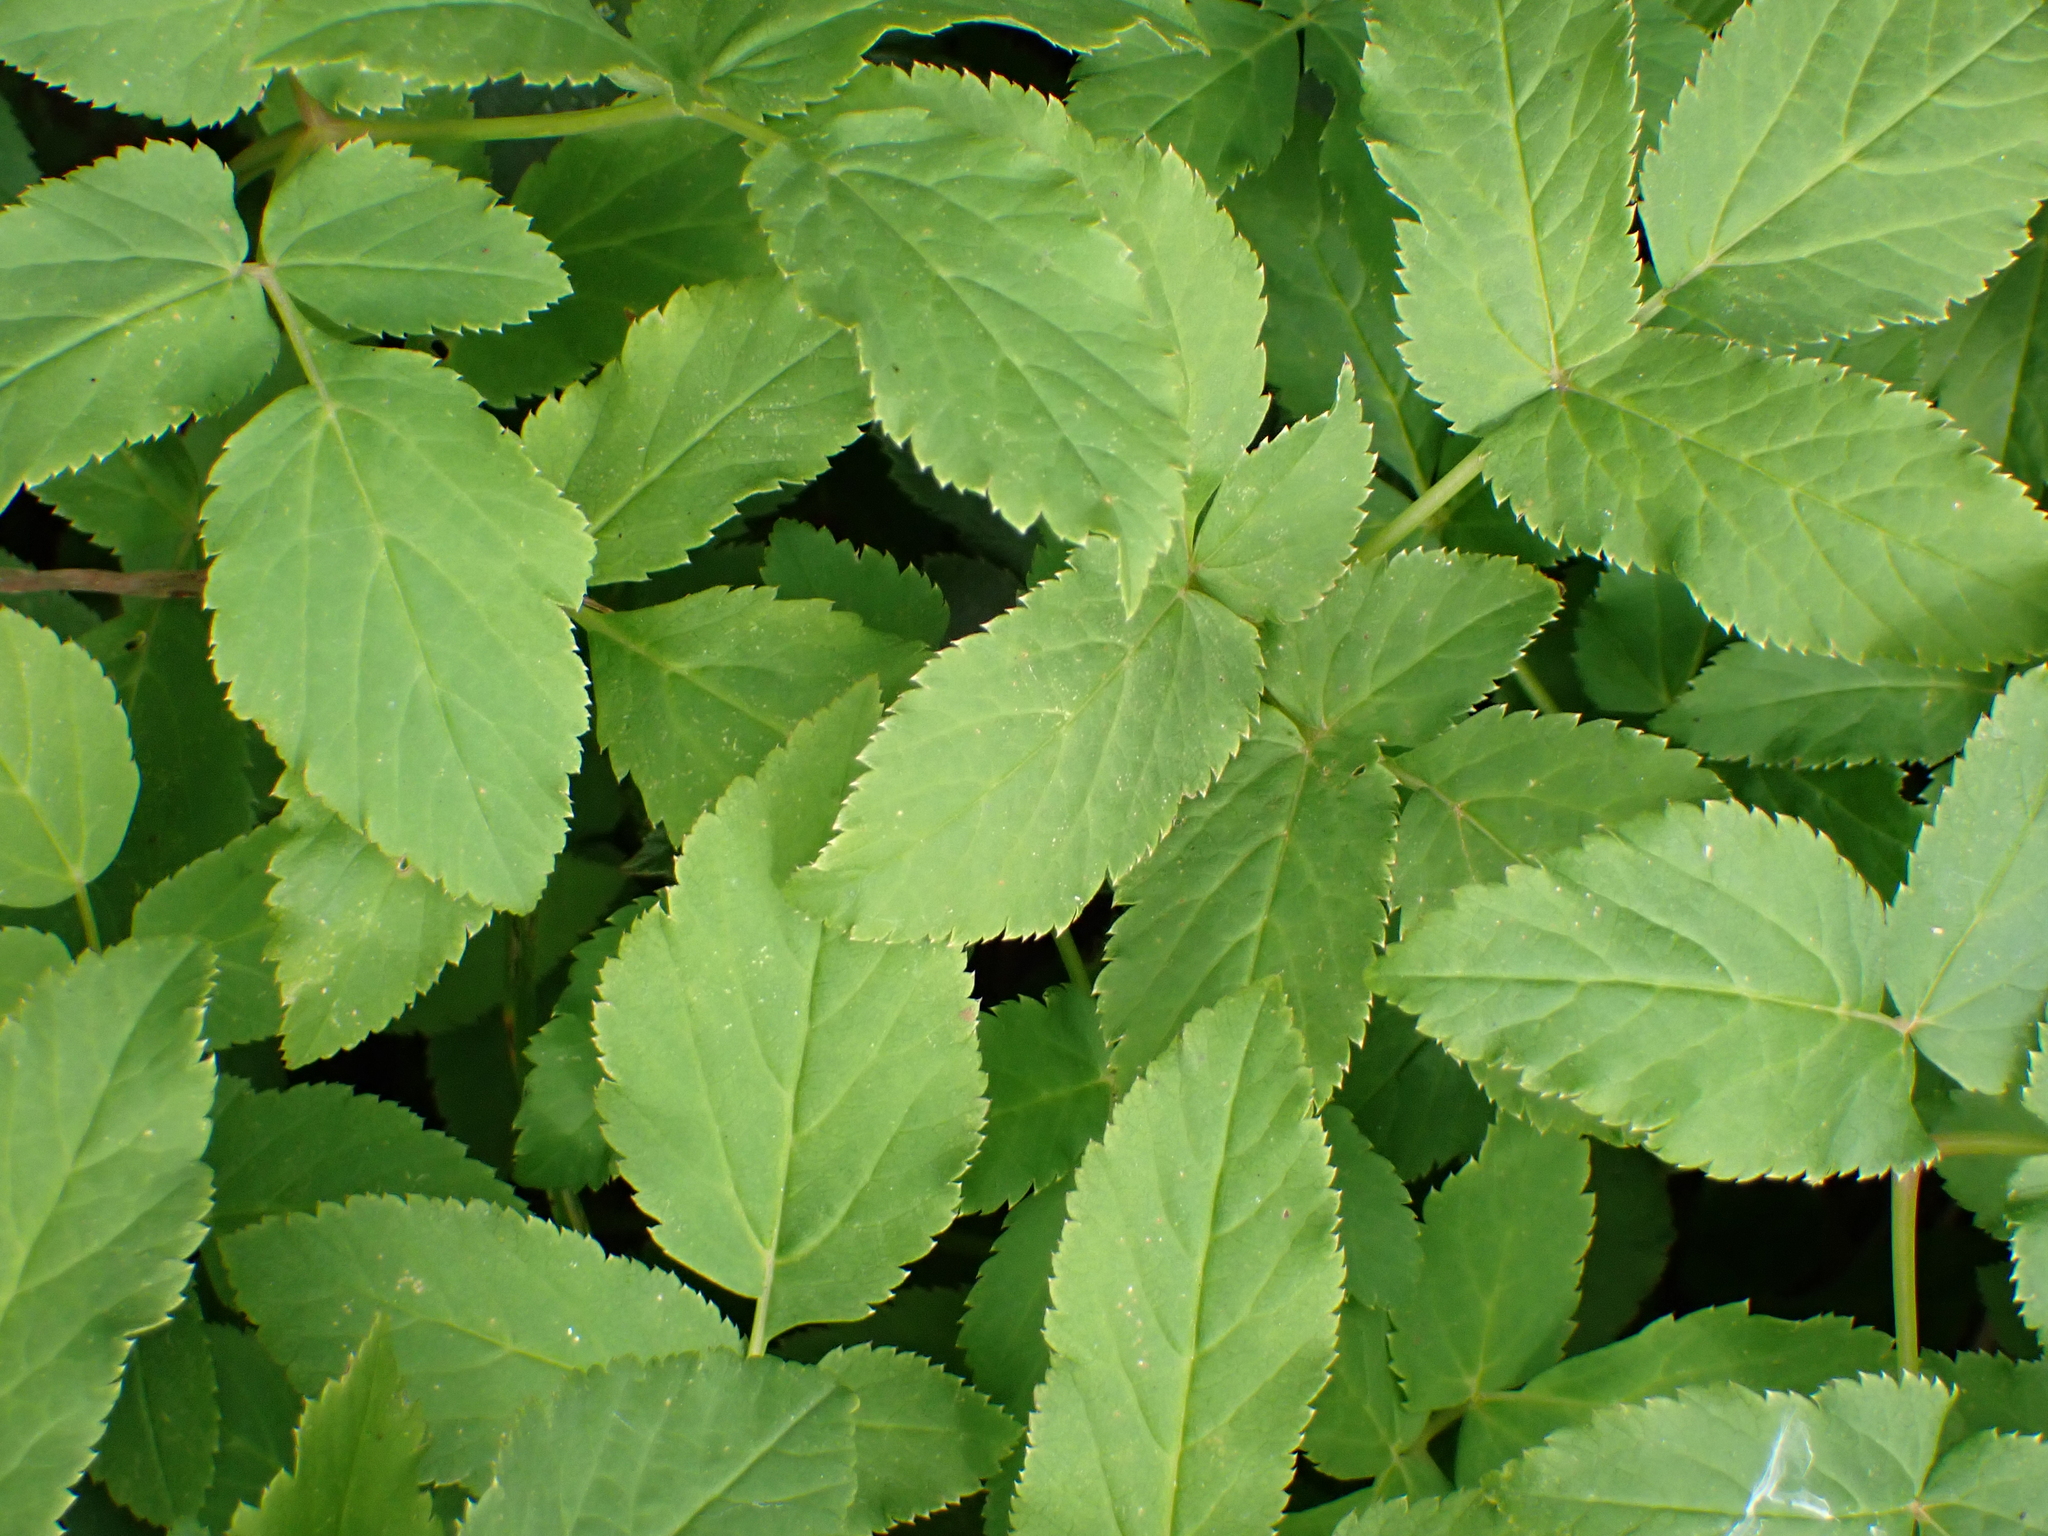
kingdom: Plantae
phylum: Tracheophyta
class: Magnoliopsida
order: Apiales
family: Apiaceae
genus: Aegopodium
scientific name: Aegopodium podagraria
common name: Ground-elder
